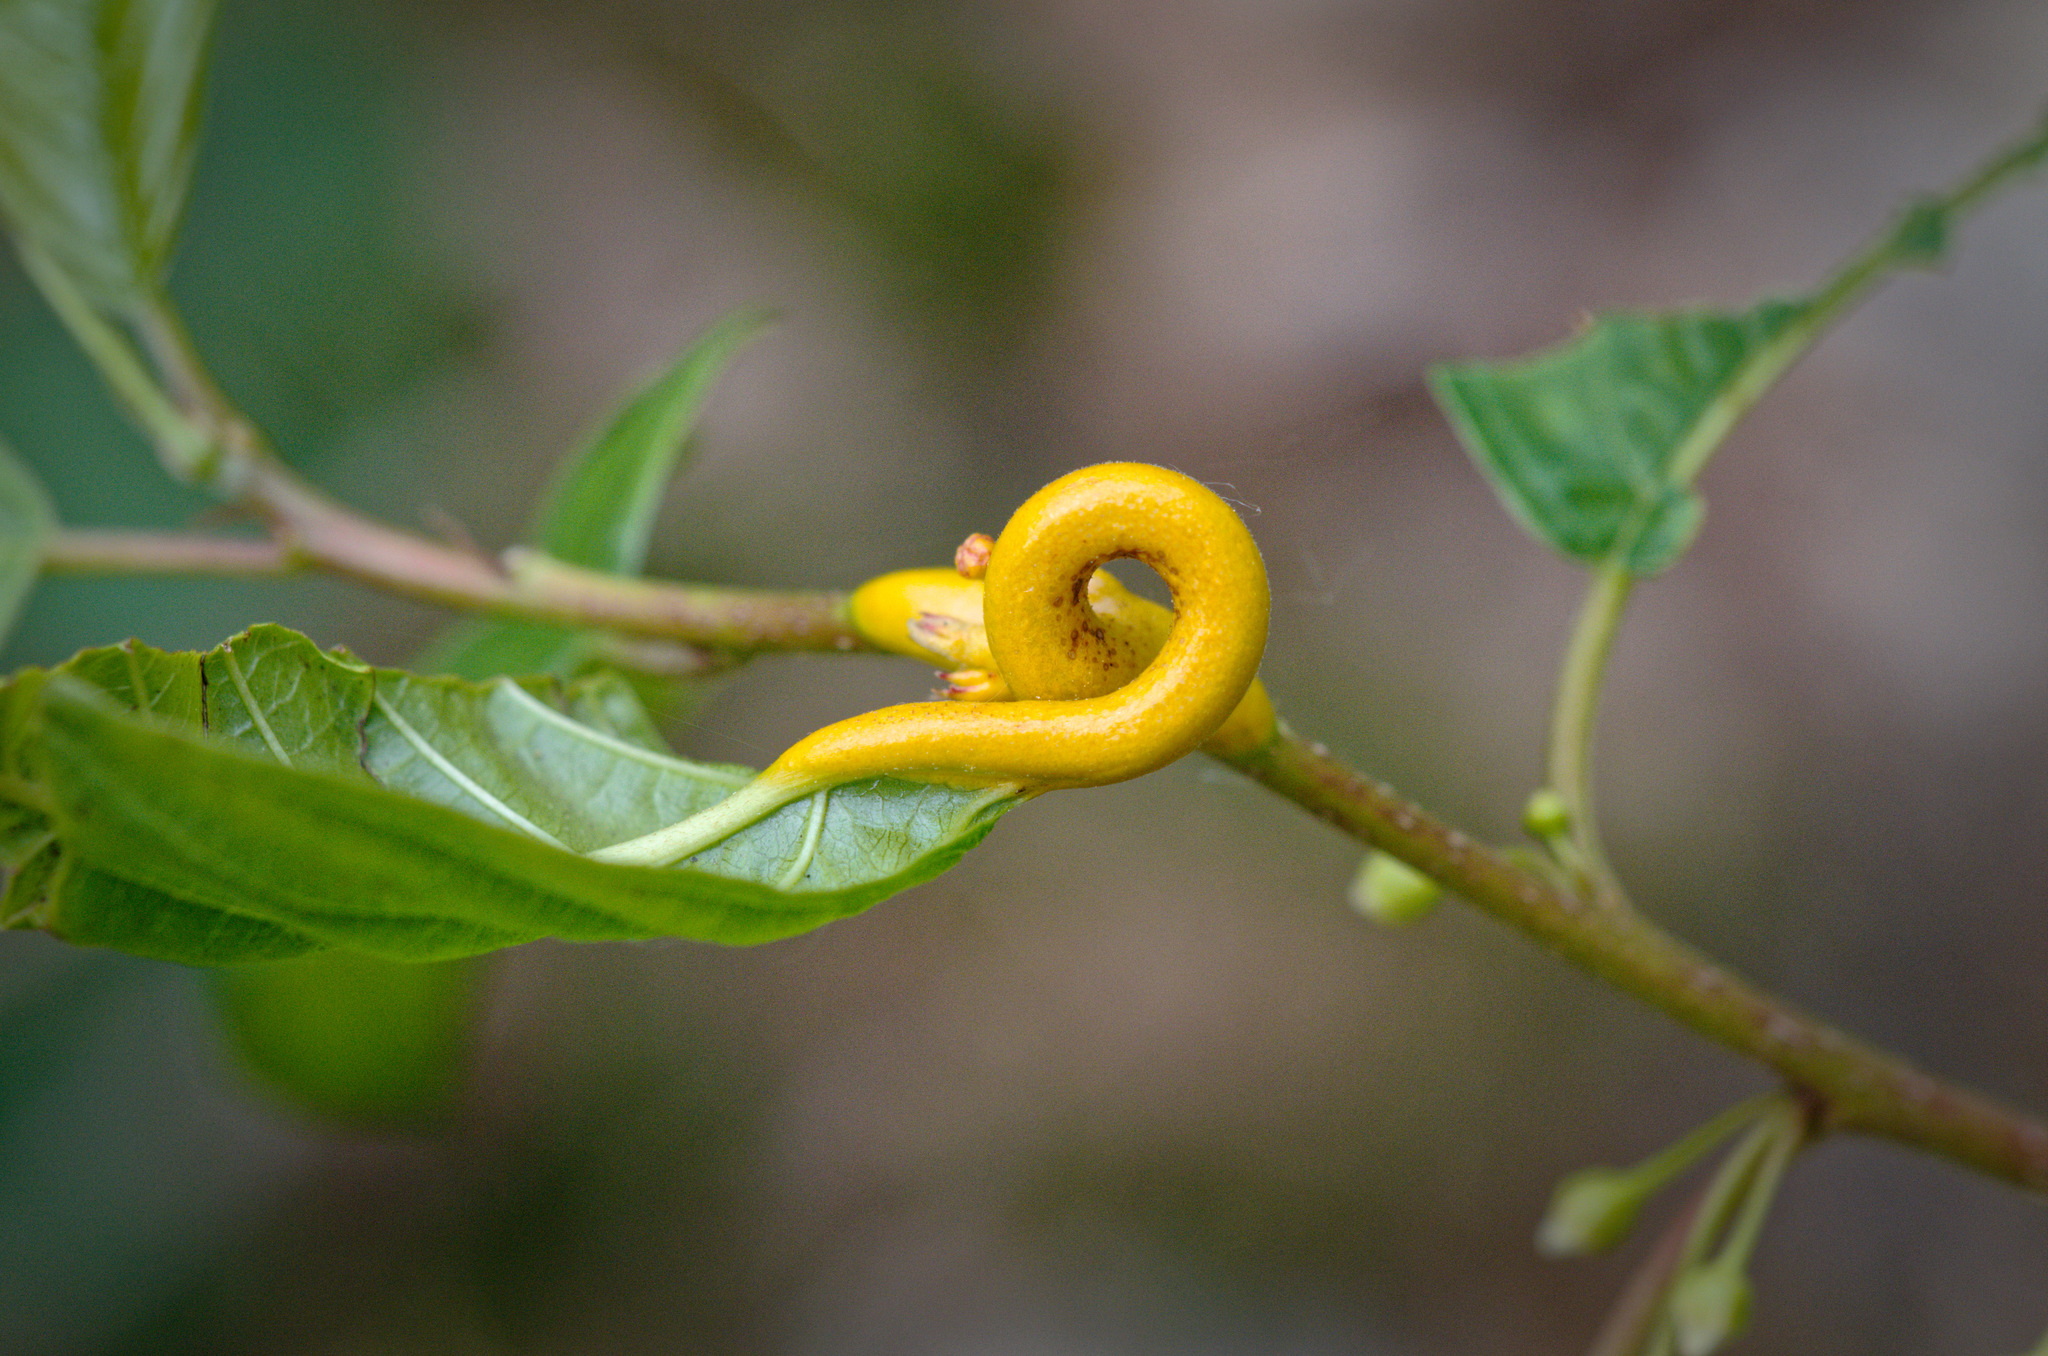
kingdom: Fungi
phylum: Basidiomycota
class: Pucciniomycetes
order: Pucciniales
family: Pucciniaceae
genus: Puccinia
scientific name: Puccinia coronata
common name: Crown rust
